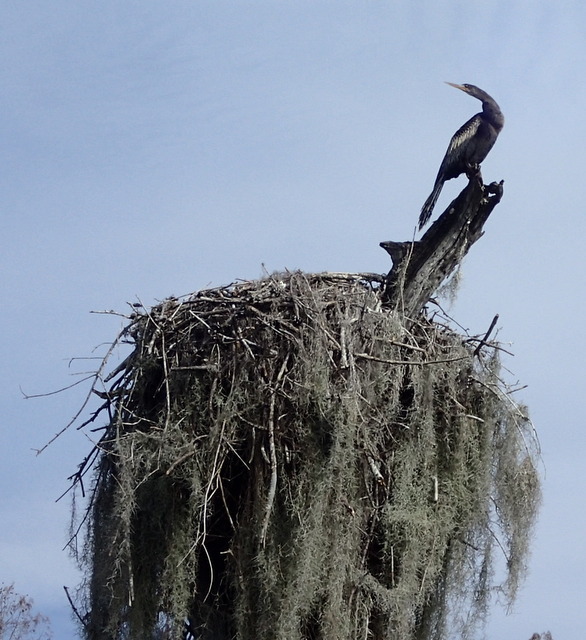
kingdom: Animalia
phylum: Chordata
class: Aves
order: Suliformes
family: Anhingidae
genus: Anhinga
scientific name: Anhinga anhinga
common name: Anhinga
